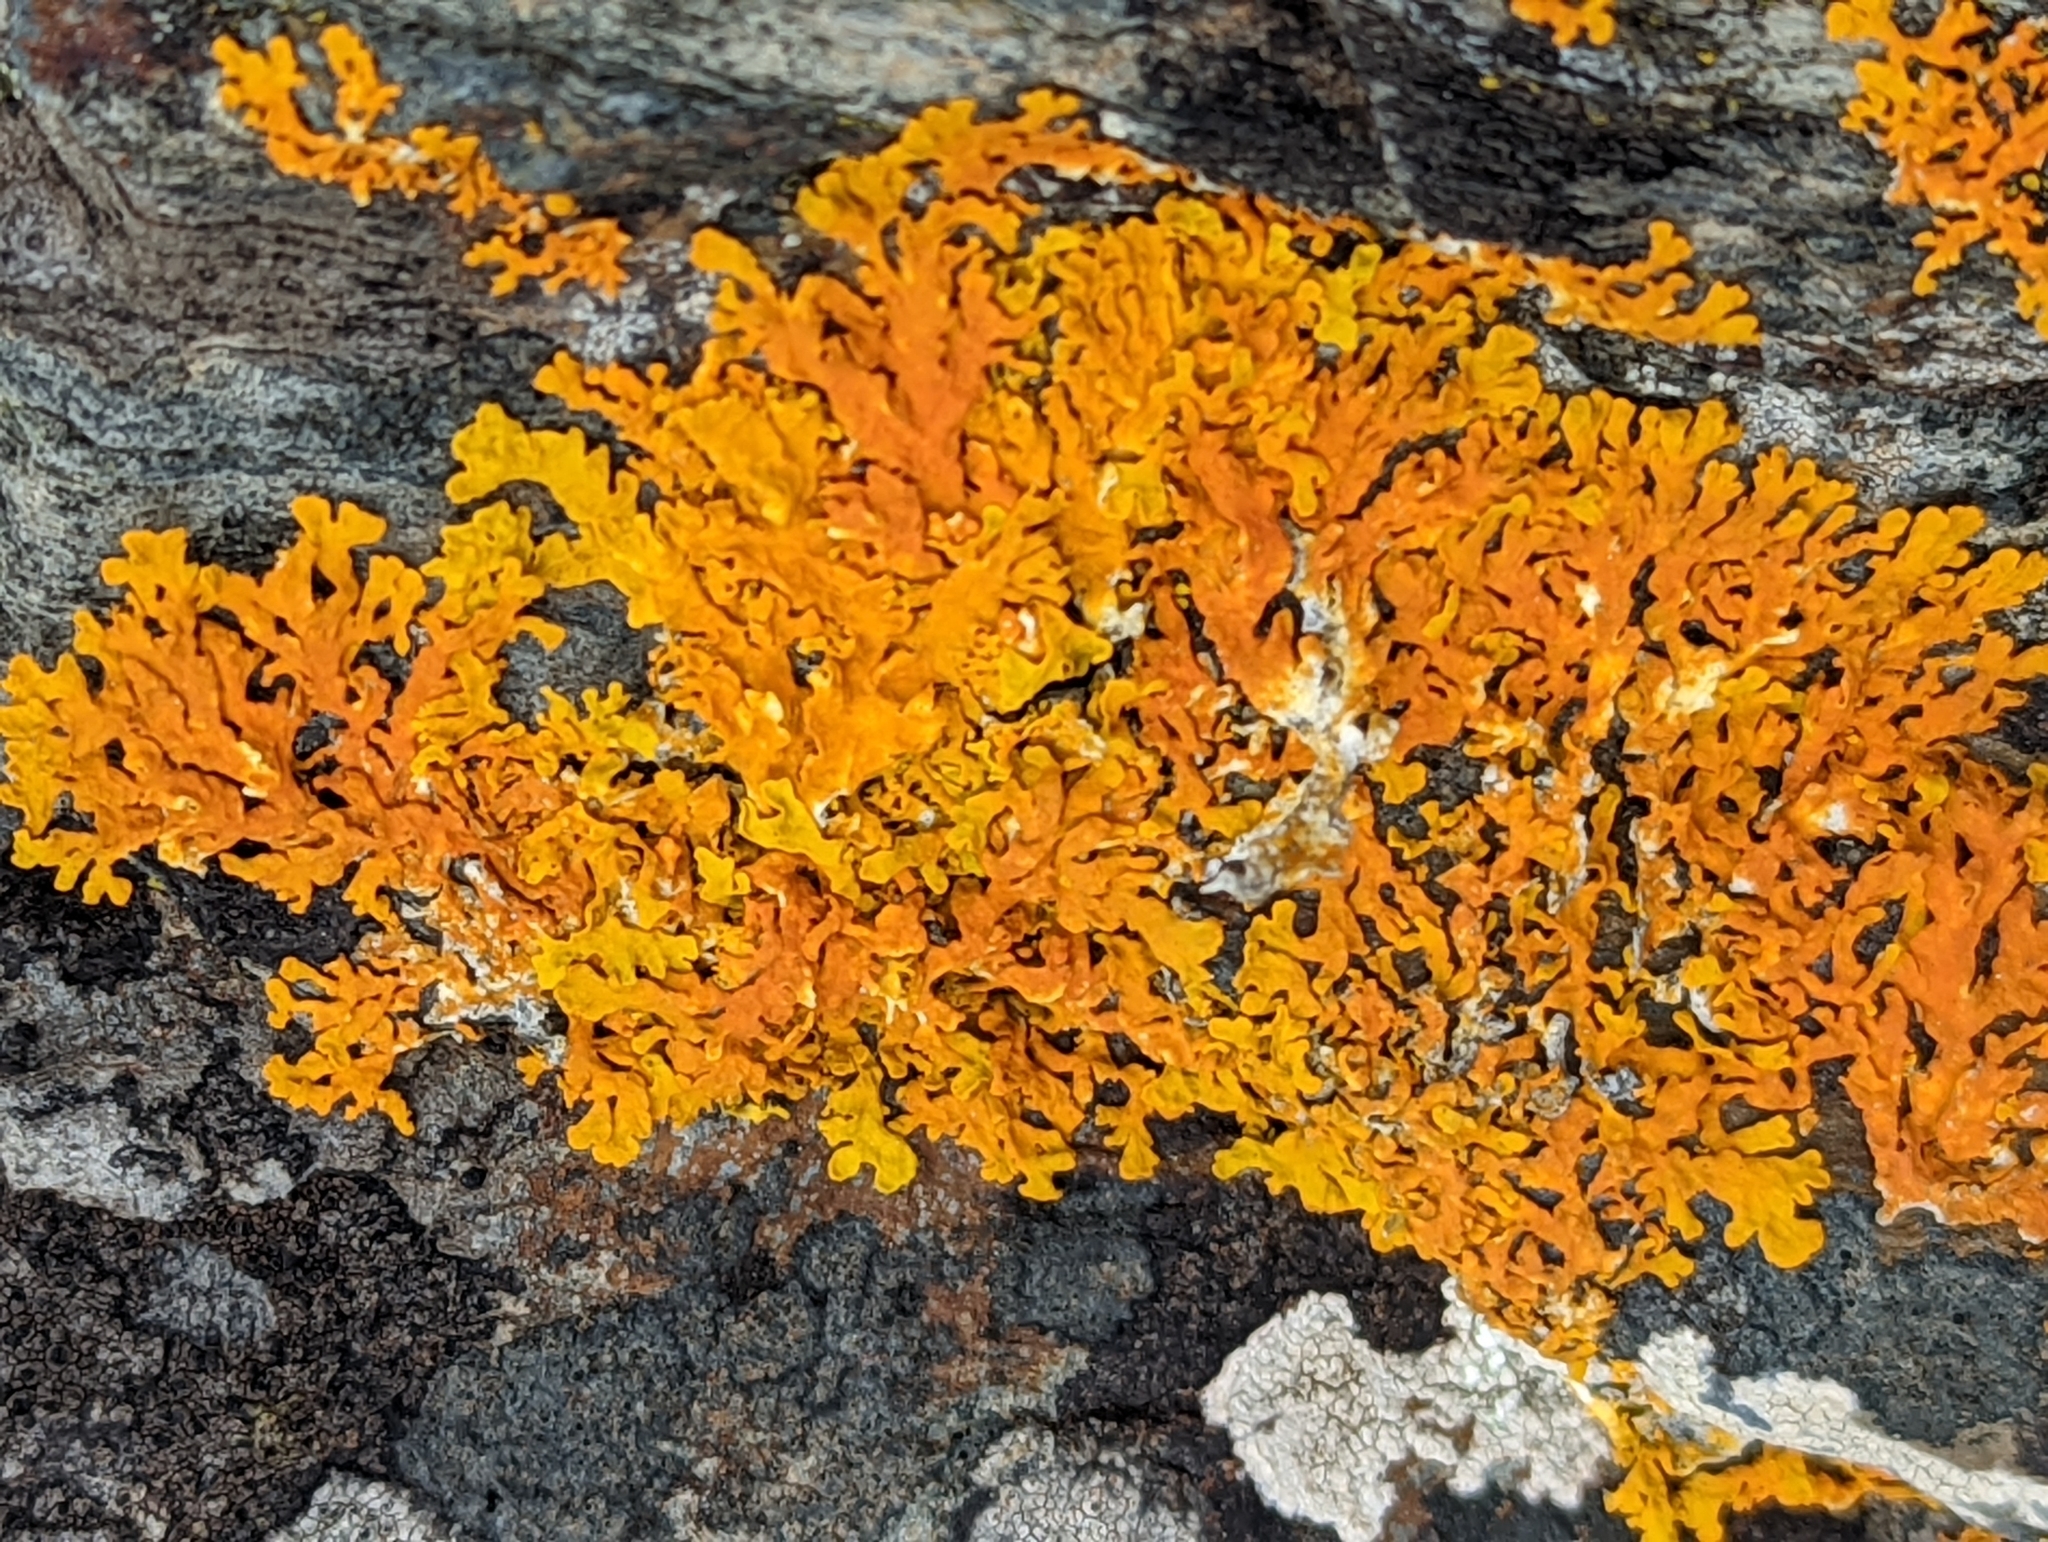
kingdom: Fungi
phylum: Ascomycota
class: Lecanoromycetes
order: Teloschistales
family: Teloschistaceae
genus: Xanthoria
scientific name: Xanthoria aureola
